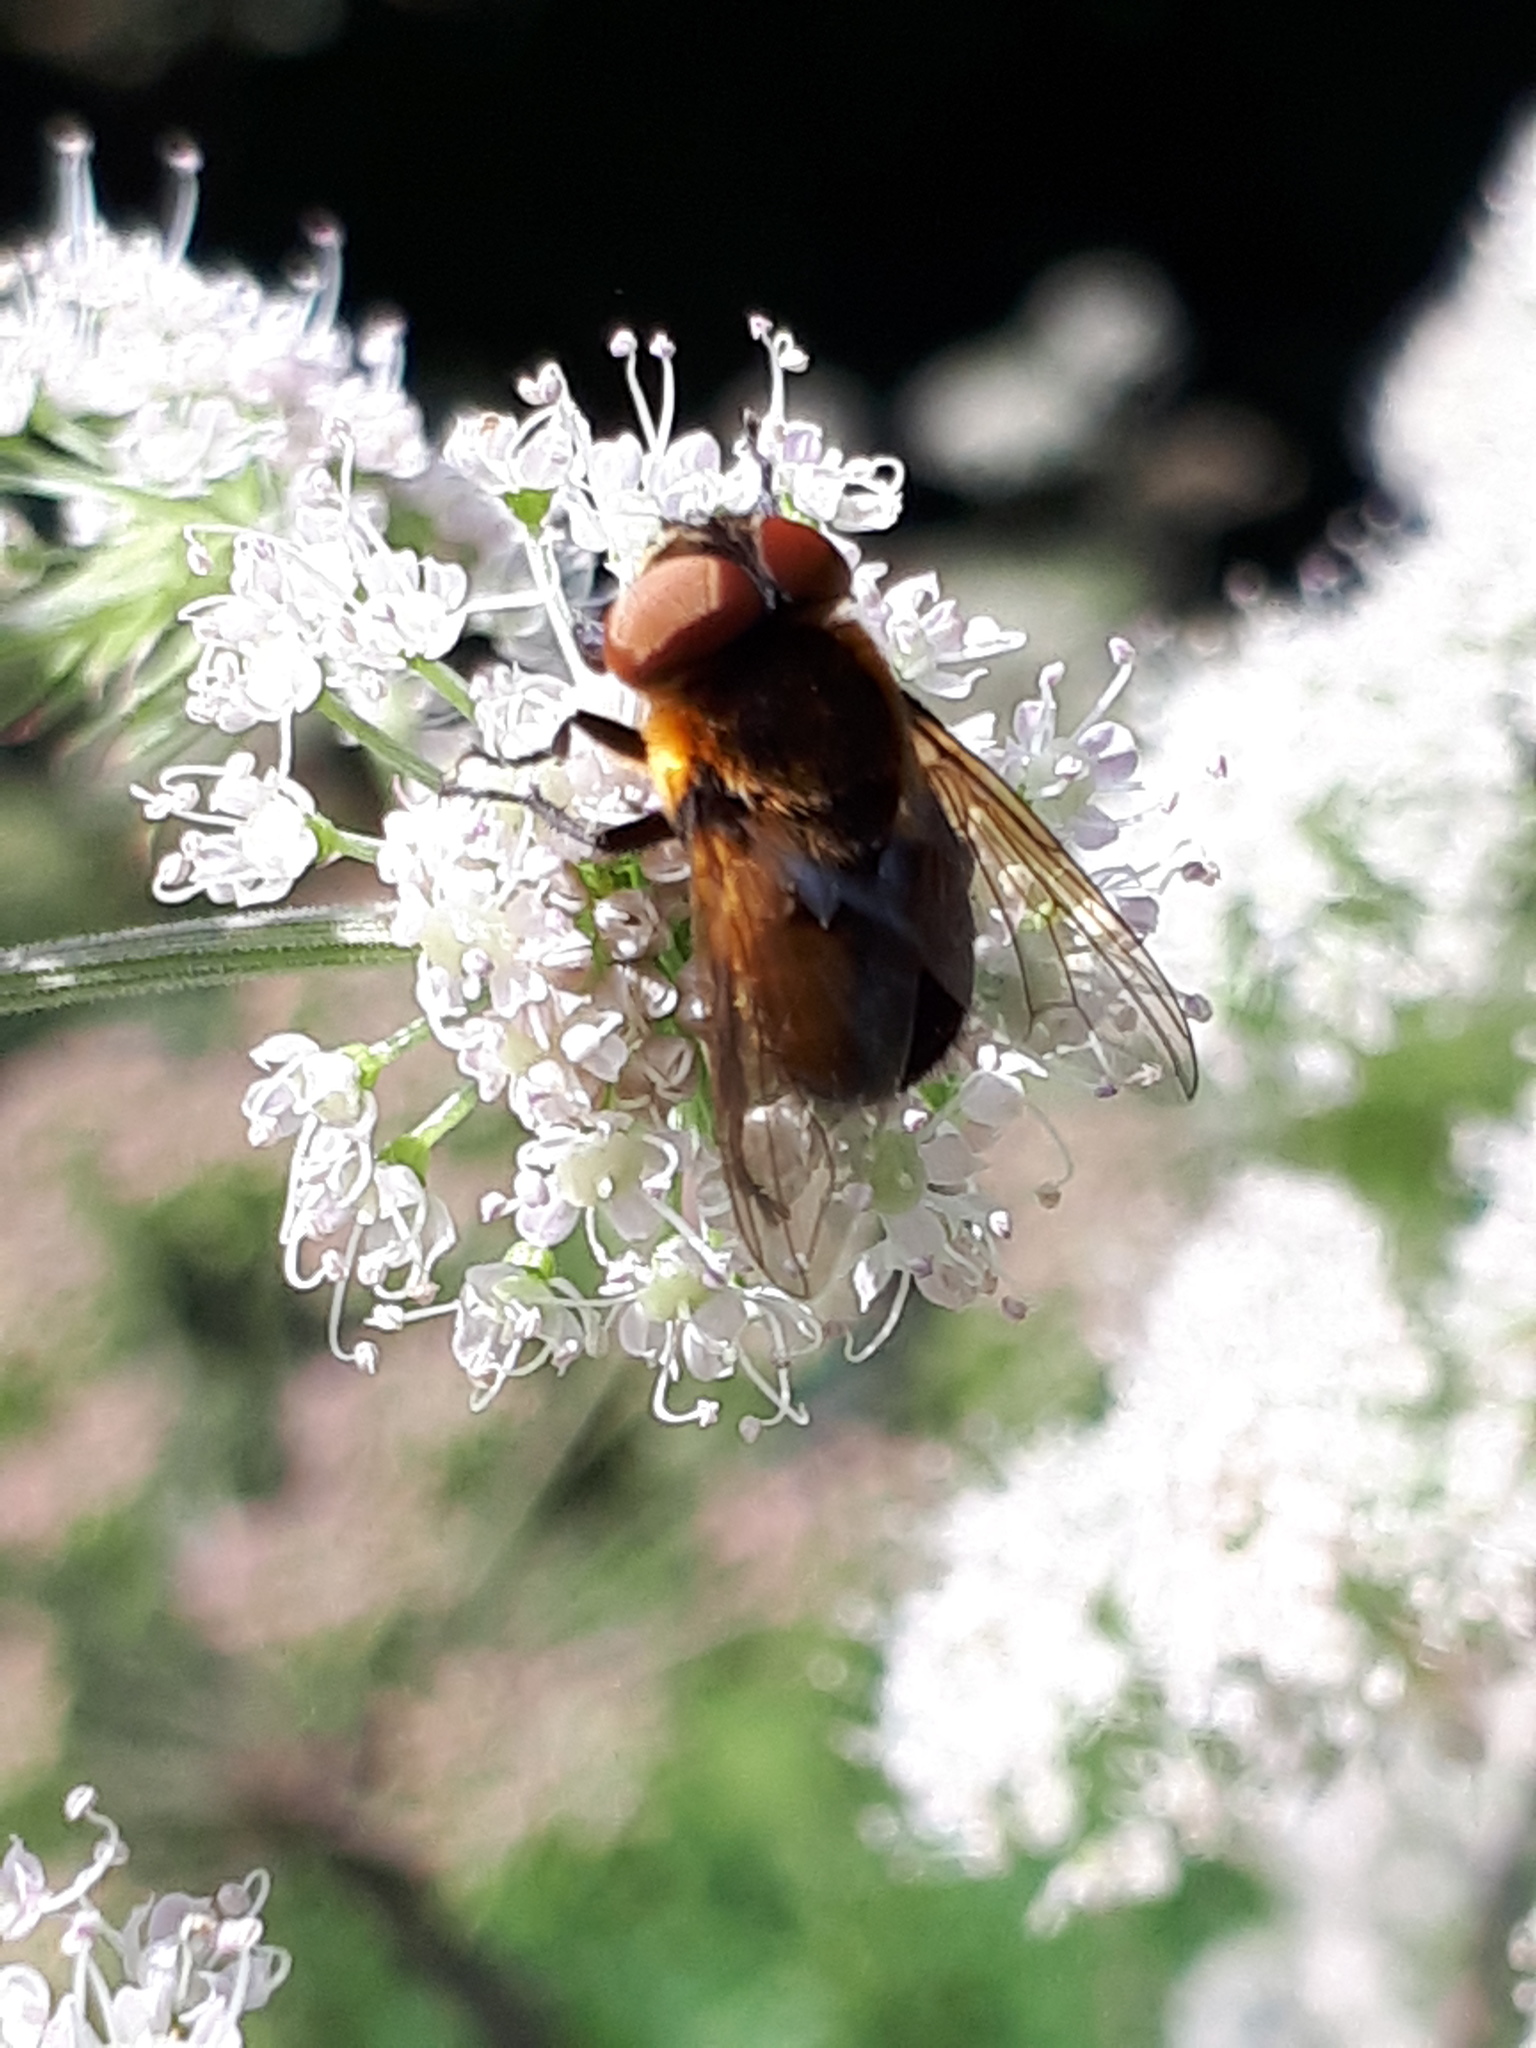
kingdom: Animalia
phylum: Arthropoda
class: Insecta
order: Diptera
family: Tachinidae
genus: Phasia
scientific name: Phasia hemiptera
